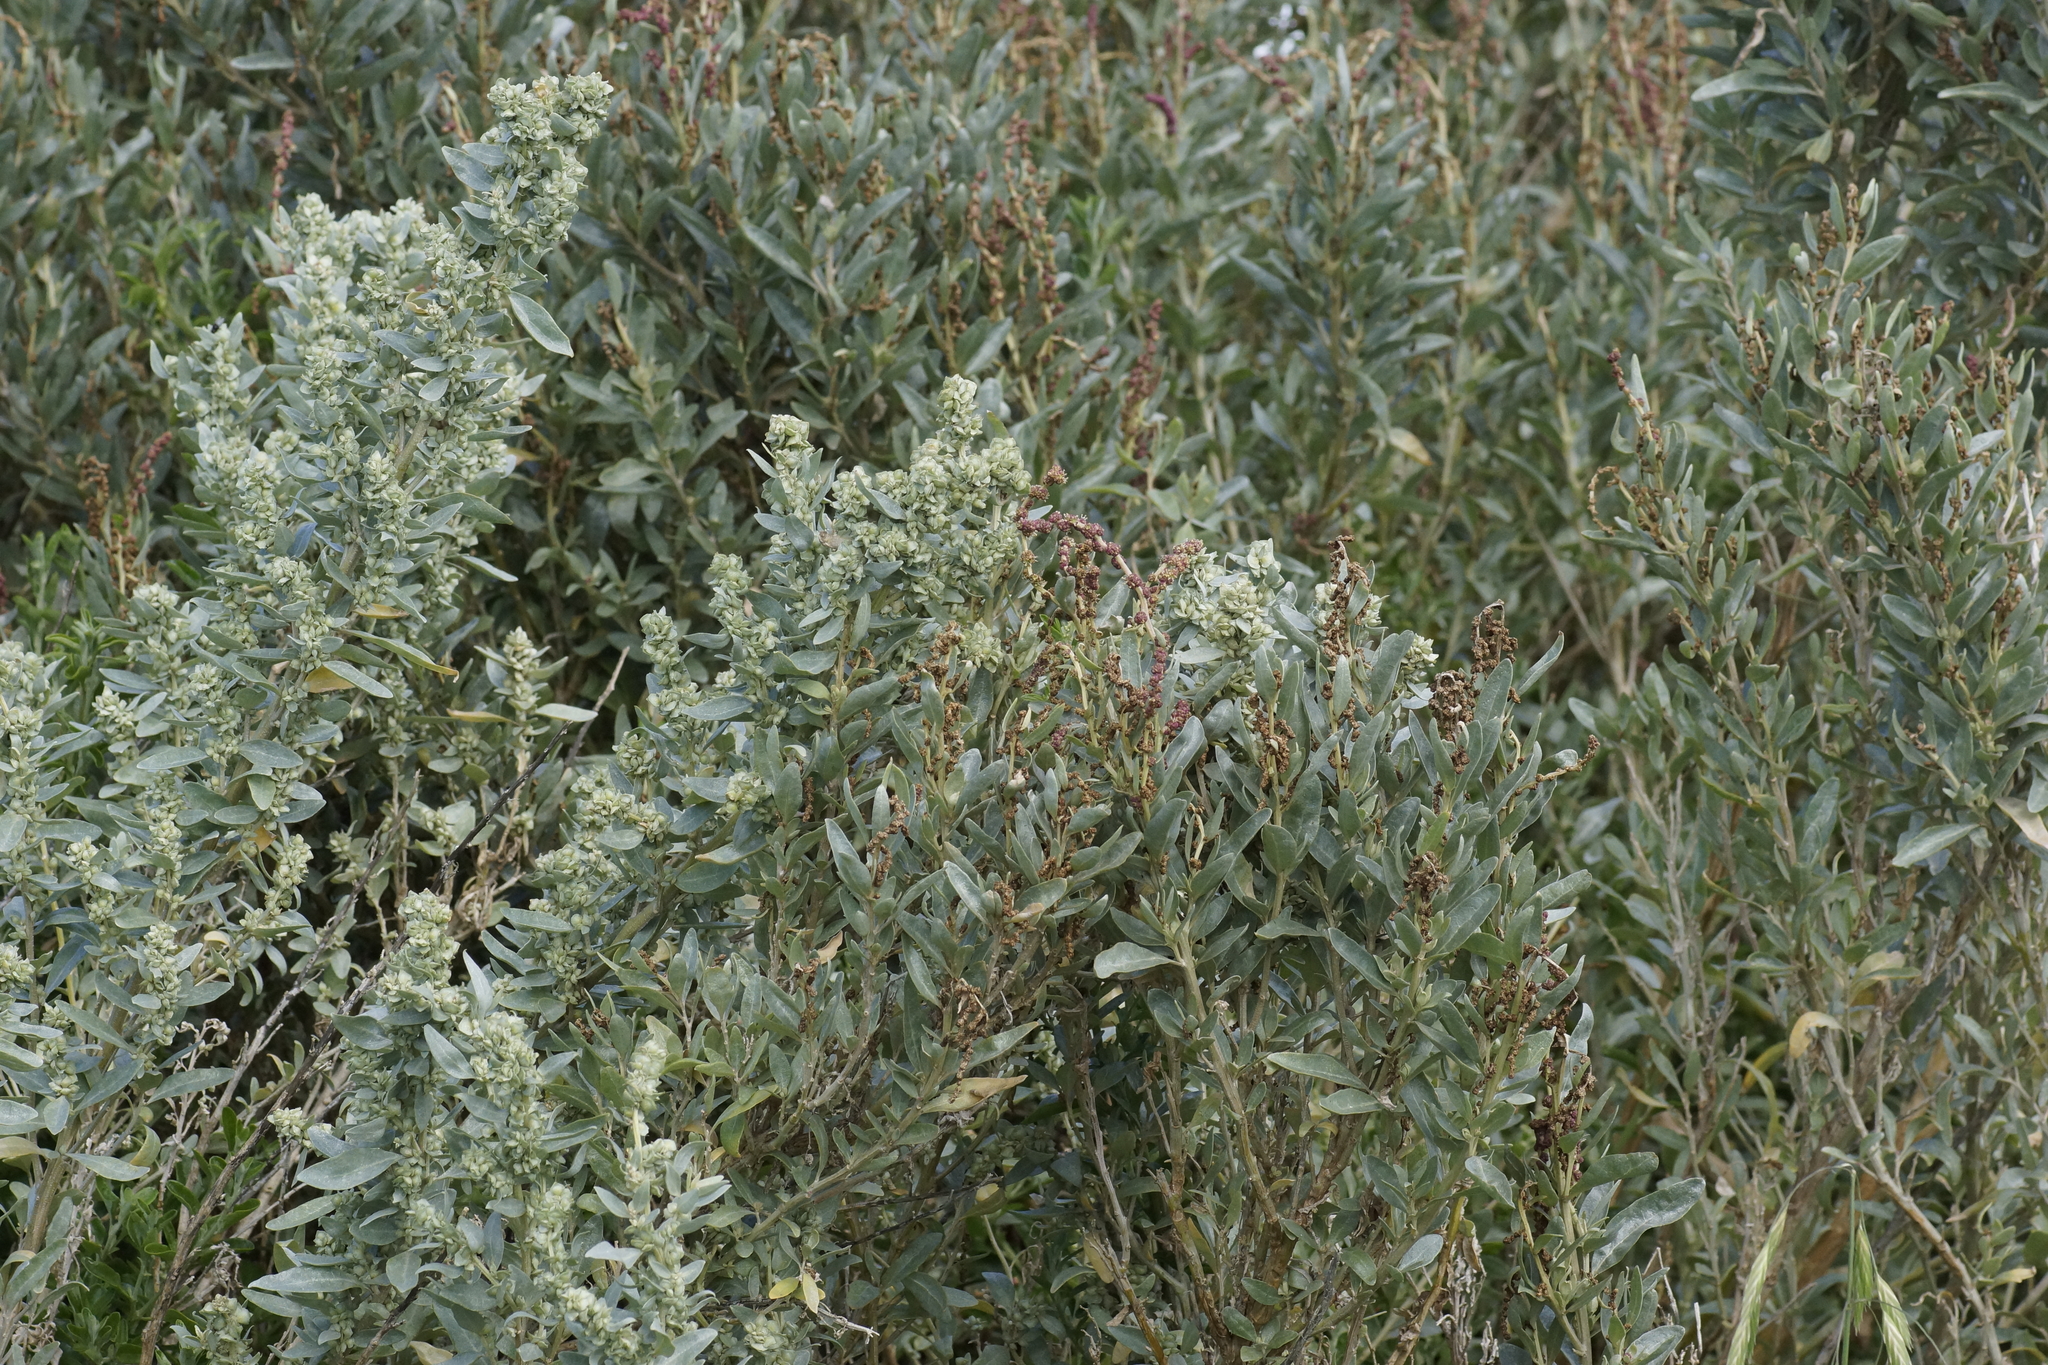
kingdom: Plantae
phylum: Tracheophyta
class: Magnoliopsida
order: Caryophyllales
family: Amaranthaceae
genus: Atriplex
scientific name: Atriplex cinerea
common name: Grey saltbush
